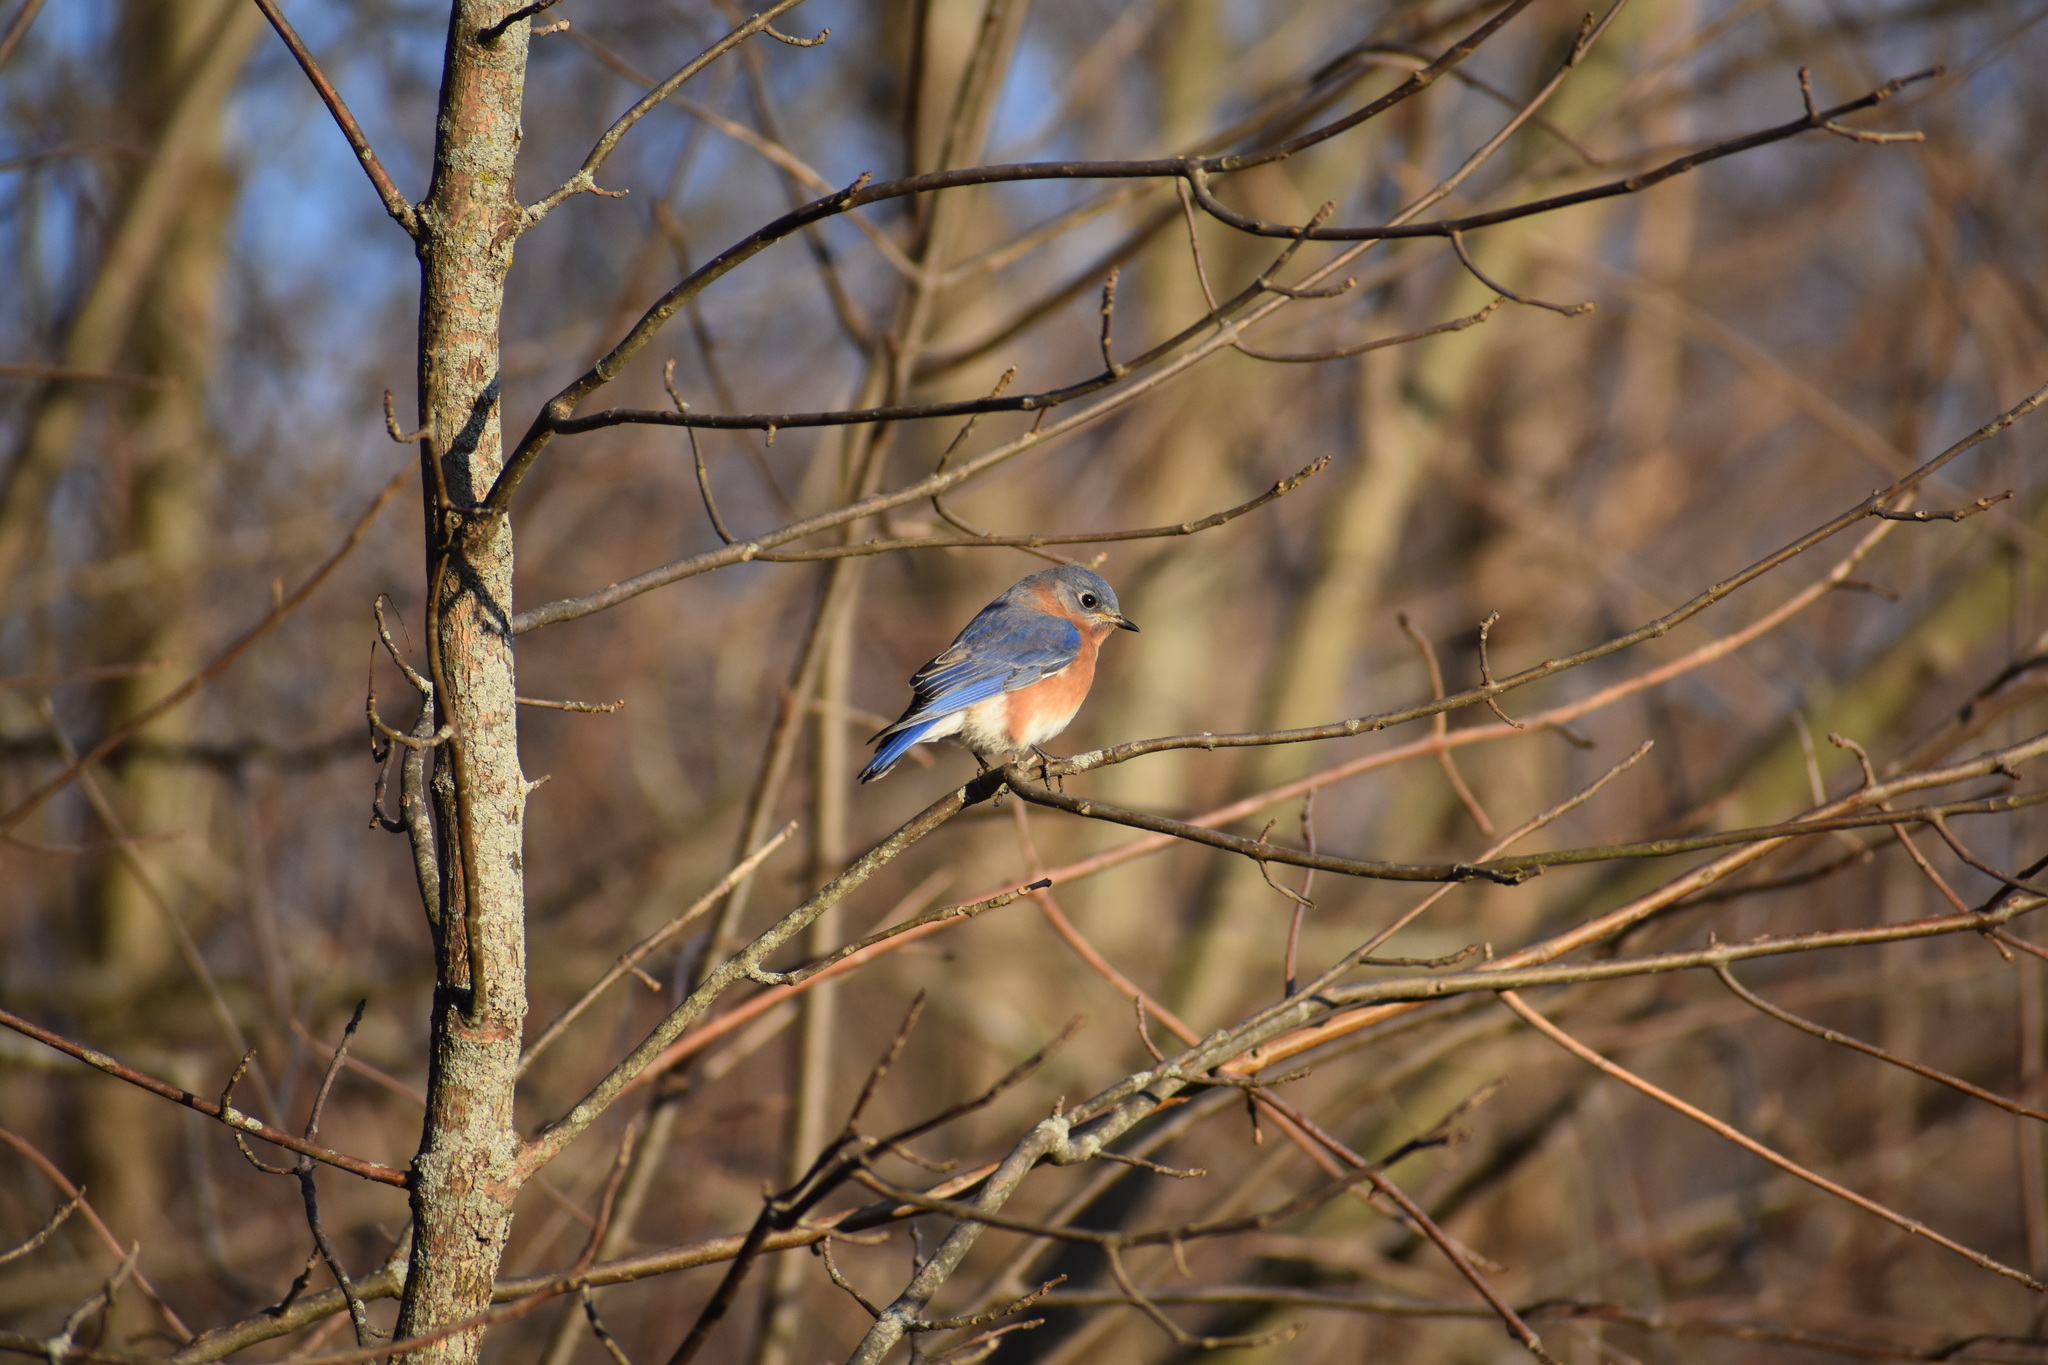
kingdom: Animalia
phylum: Chordata
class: Aves
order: Passeriformes
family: Turdidae
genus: Sialia
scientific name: Sialia sialis
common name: Eastern bluebird
